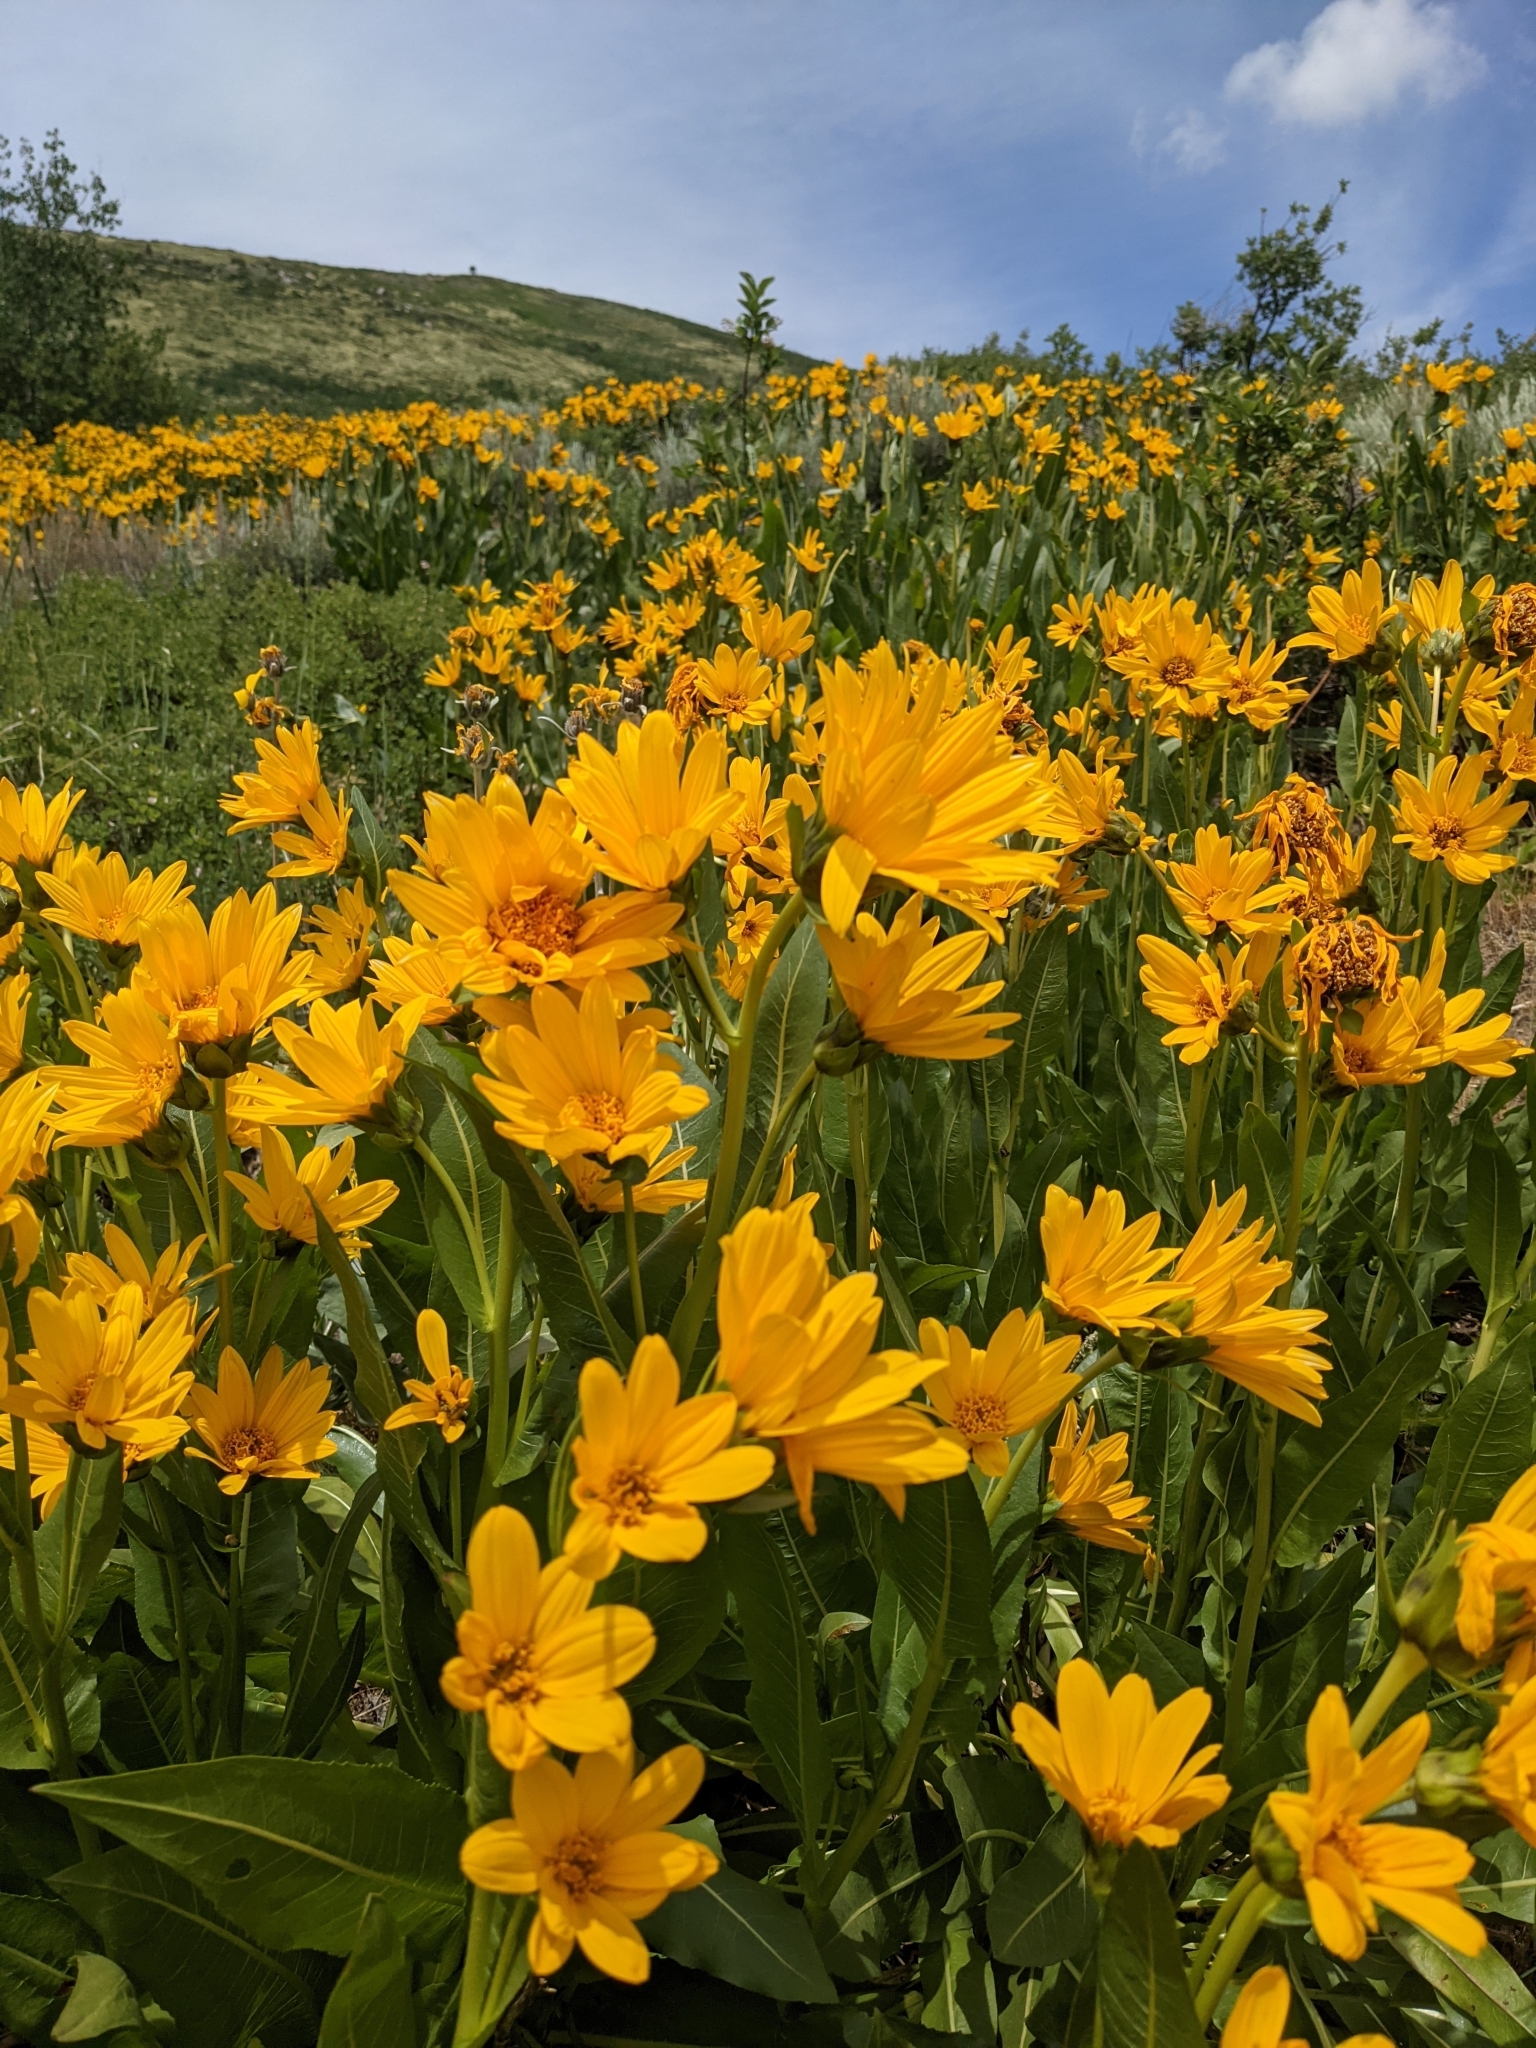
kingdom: Plantae
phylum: Tracheophyta
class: Magnoliopsida
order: Asterales
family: Asteraceae
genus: Wyethia
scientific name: Wyethia amplexicaulis
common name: Northern mule's-ears
